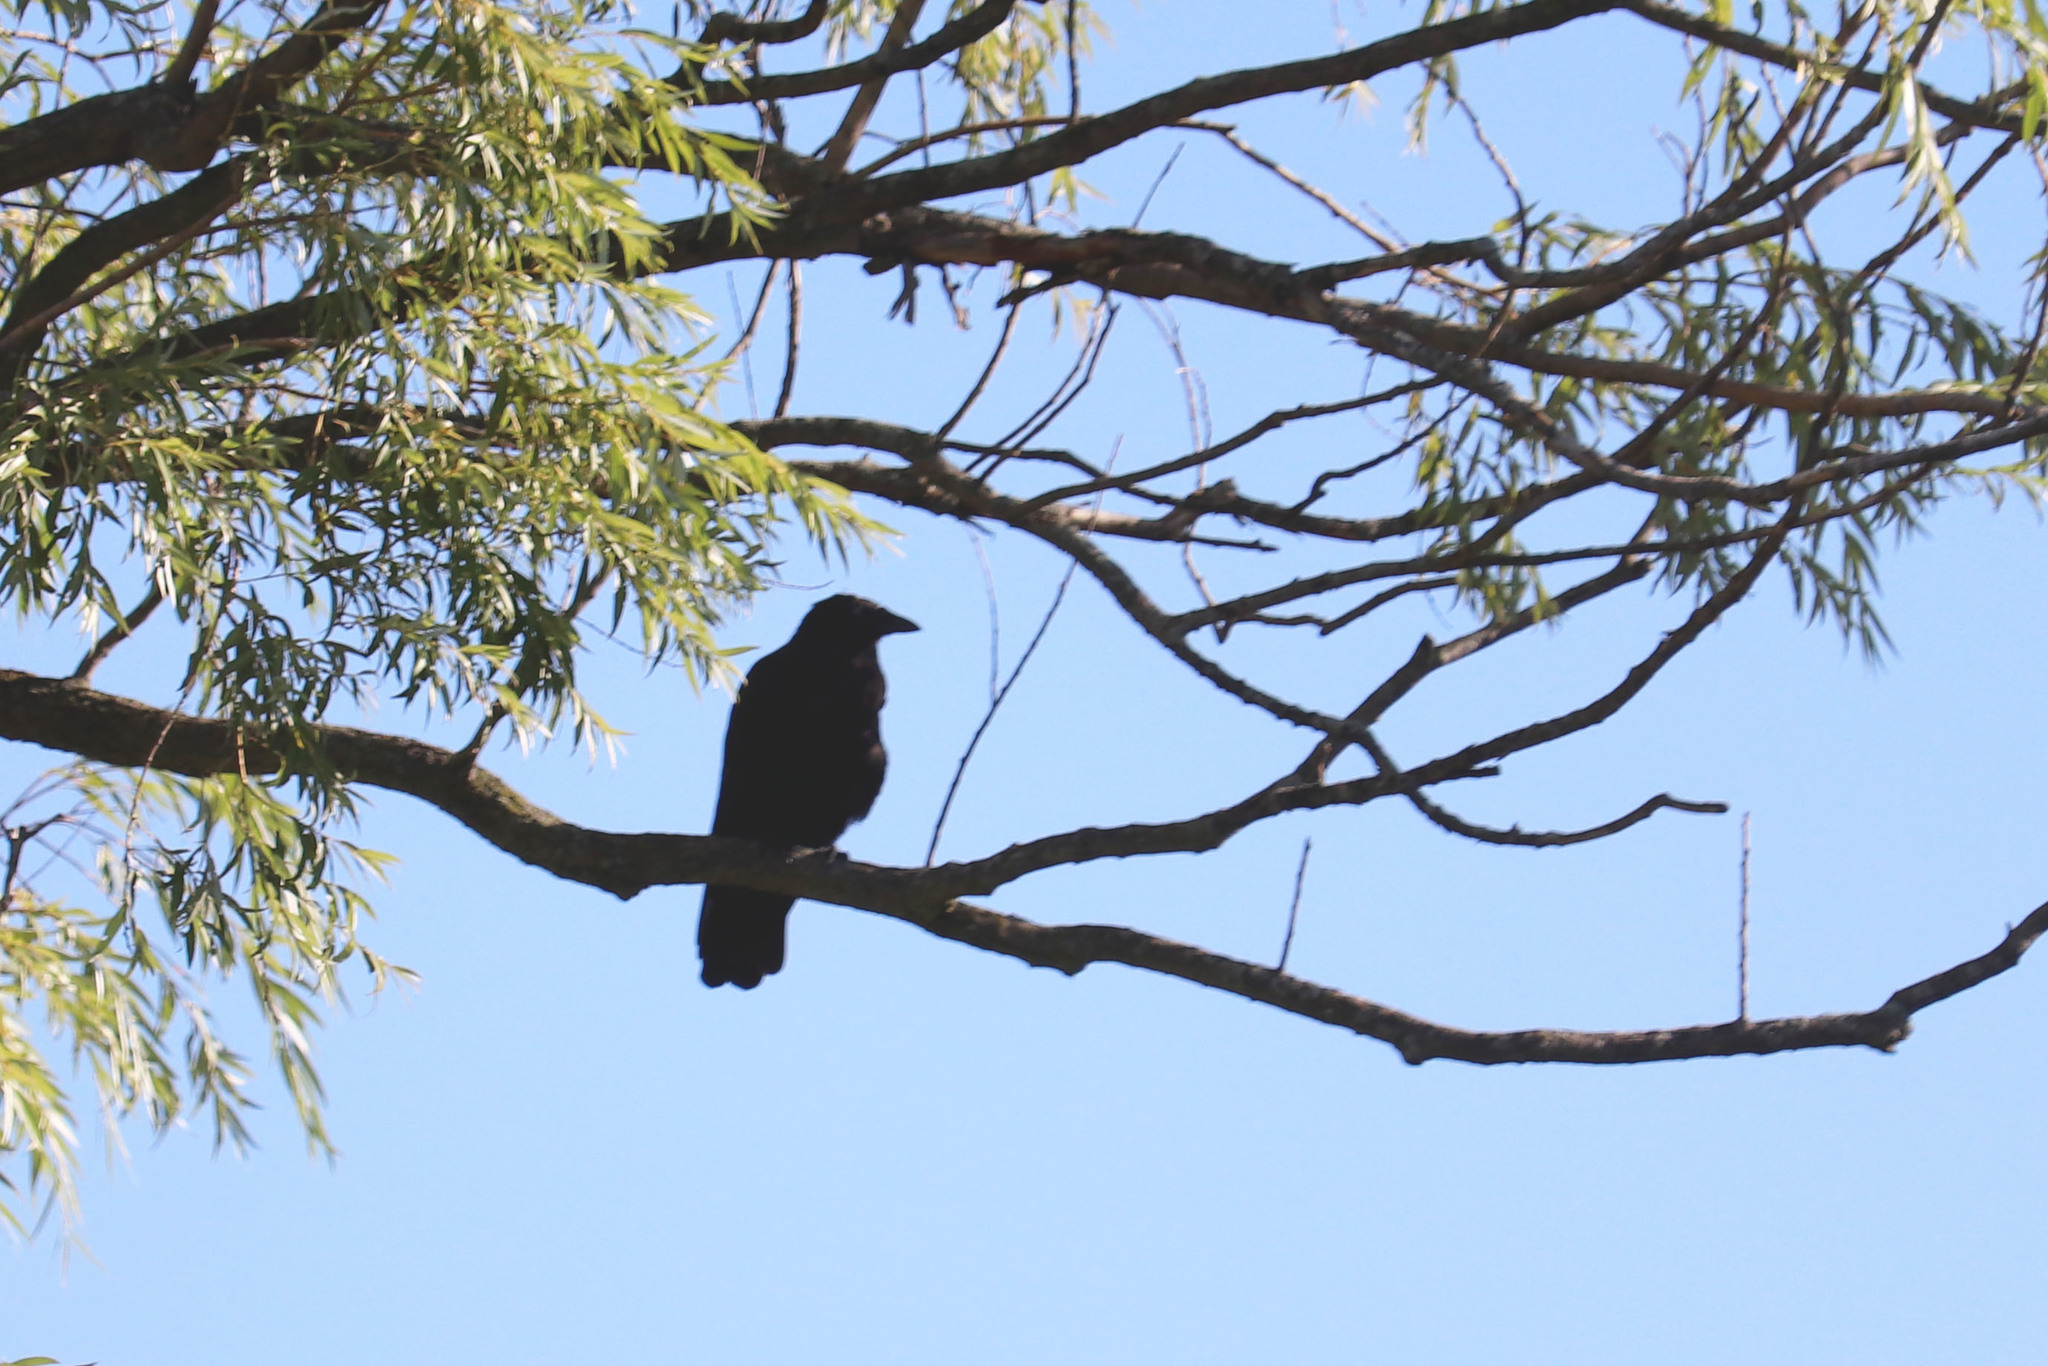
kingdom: Animalia
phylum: Chordata
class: Aves
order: Passeriformes
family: Corvidae
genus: Corvus
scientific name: Corvus brachyrhynchos
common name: American crow
